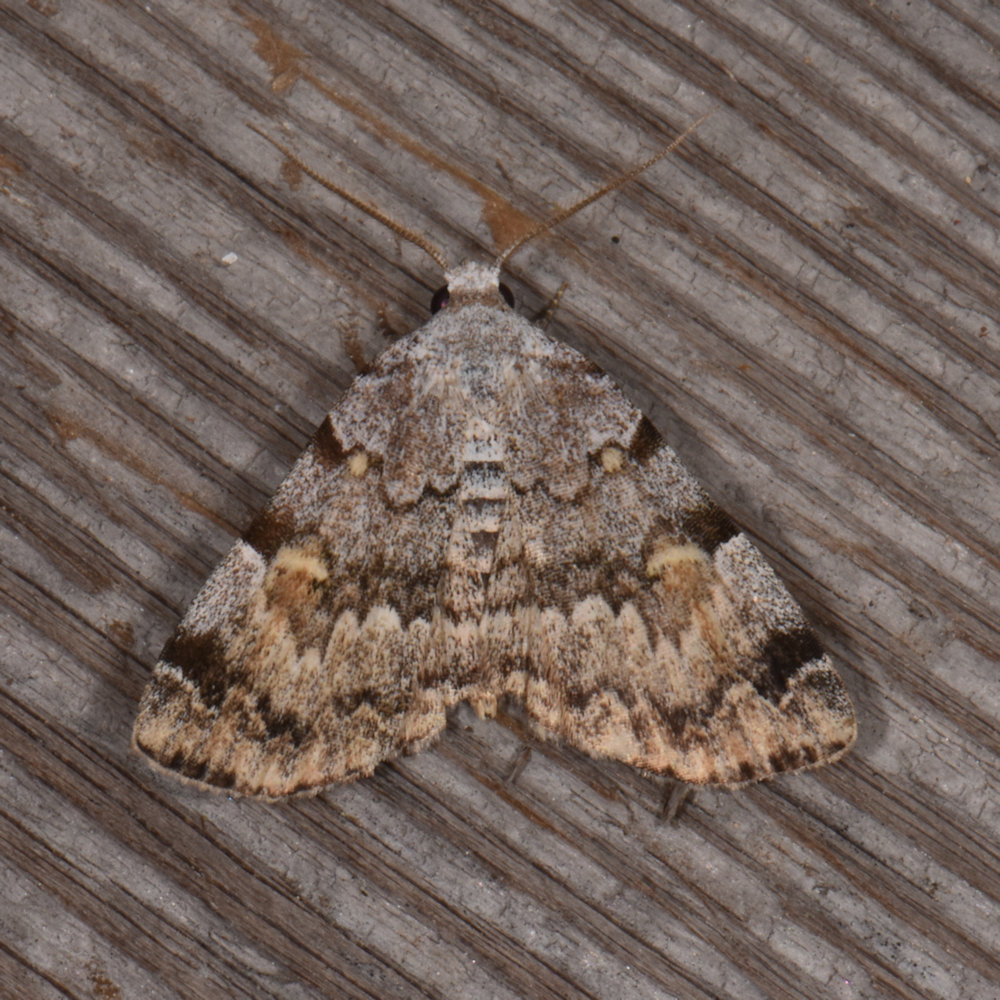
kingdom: Animalia
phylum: Arthropoda
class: Insecta
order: Lepidoptera
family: Erebidae
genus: Idia
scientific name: Idia americalis
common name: American idia moth
